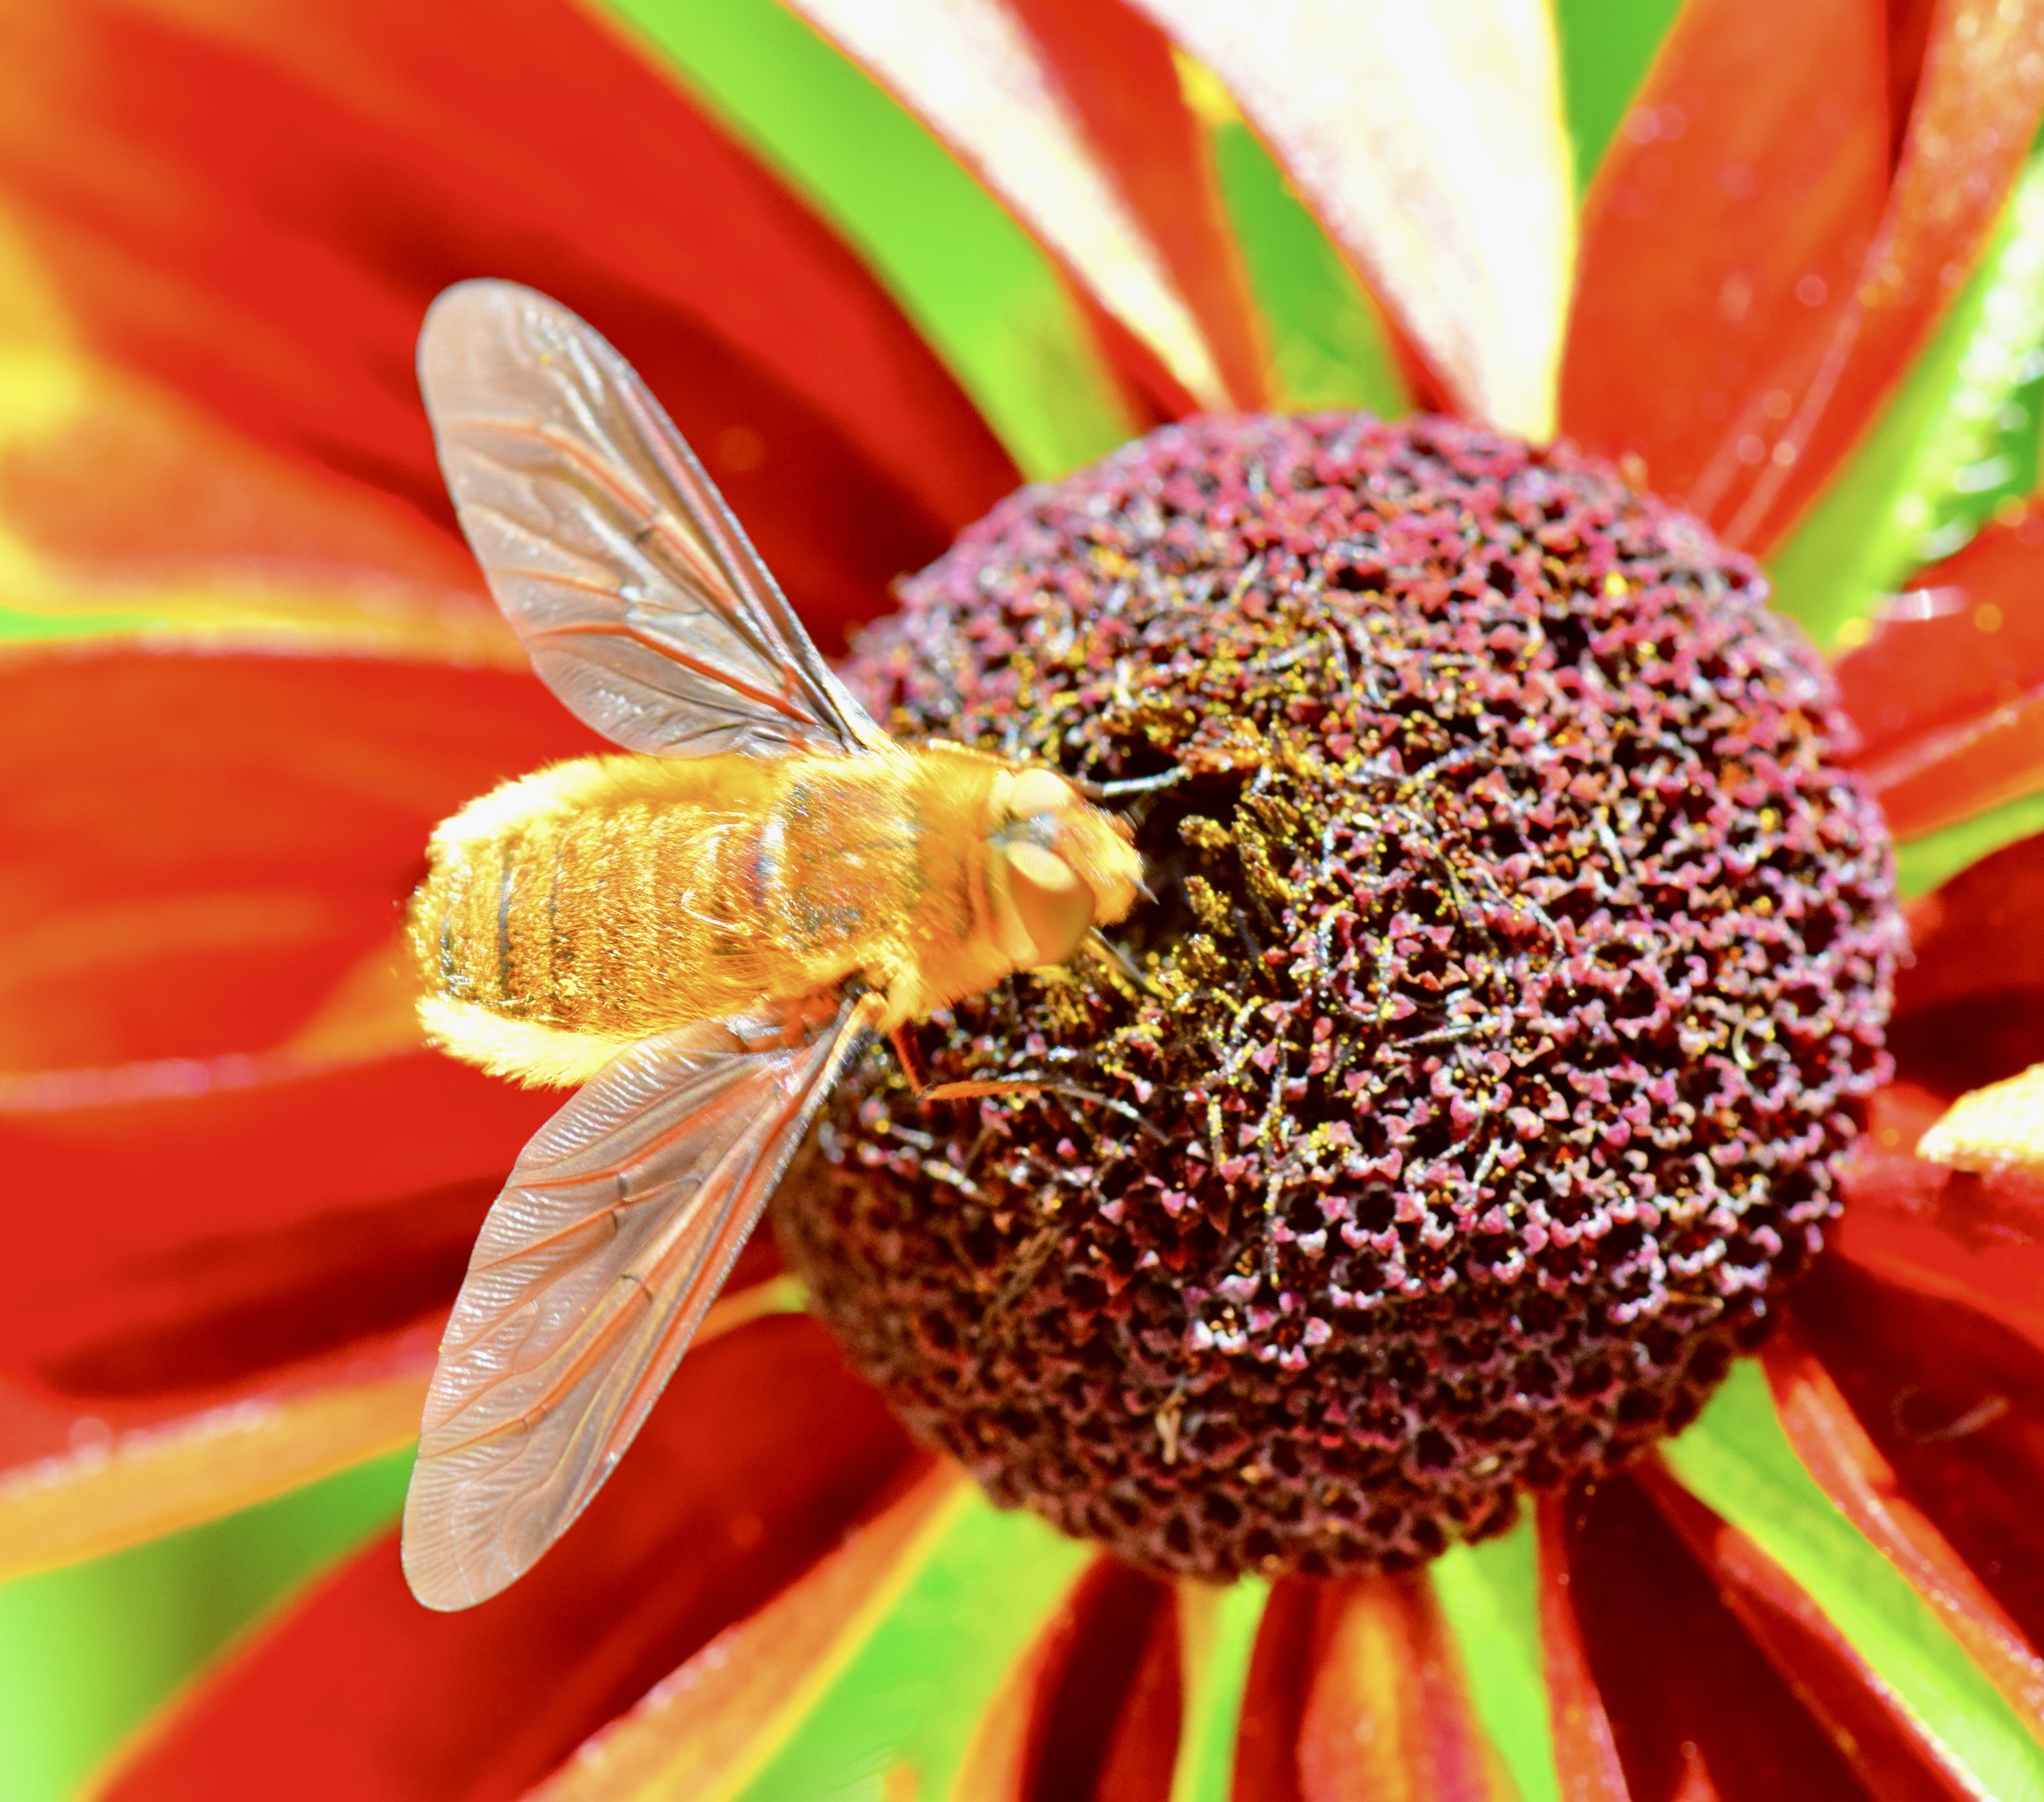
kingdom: Animalia
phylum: Arthropoda
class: Insecta
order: Diptera
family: Bombyliidae
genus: Poecilanthrax
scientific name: Poecilanthrax tegminipennis
